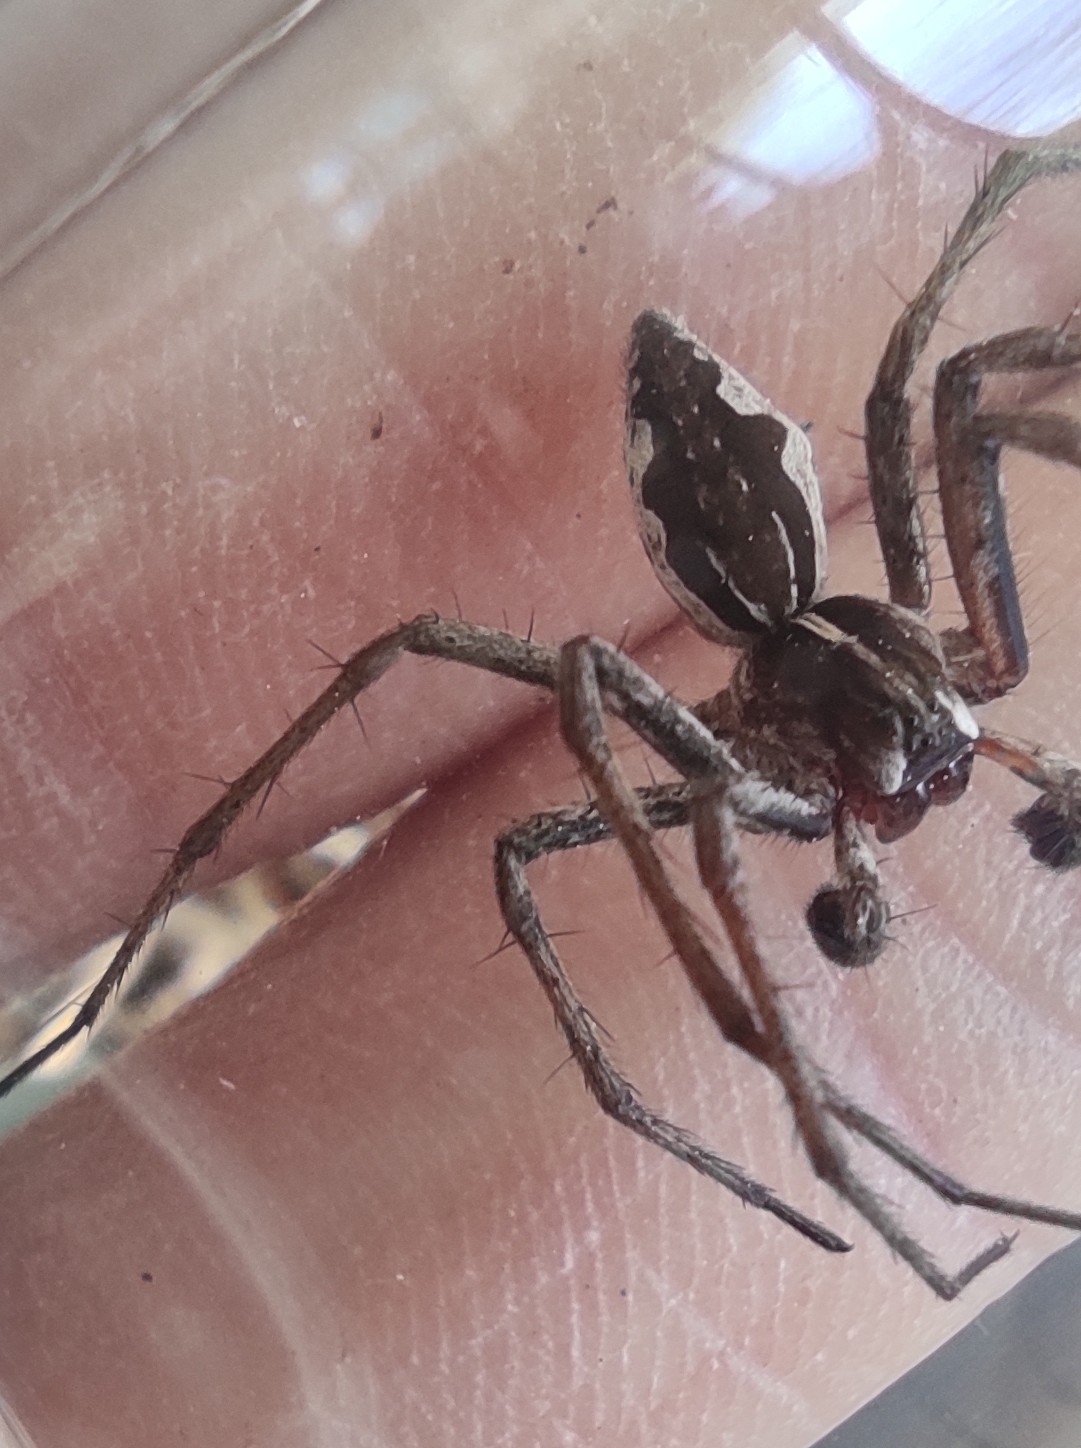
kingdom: Animalia
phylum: Arthropoda
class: Arachnida
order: Araneae
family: Pisauridae
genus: Pisaura
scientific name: Pisaura mirabilis
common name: Tent spider
